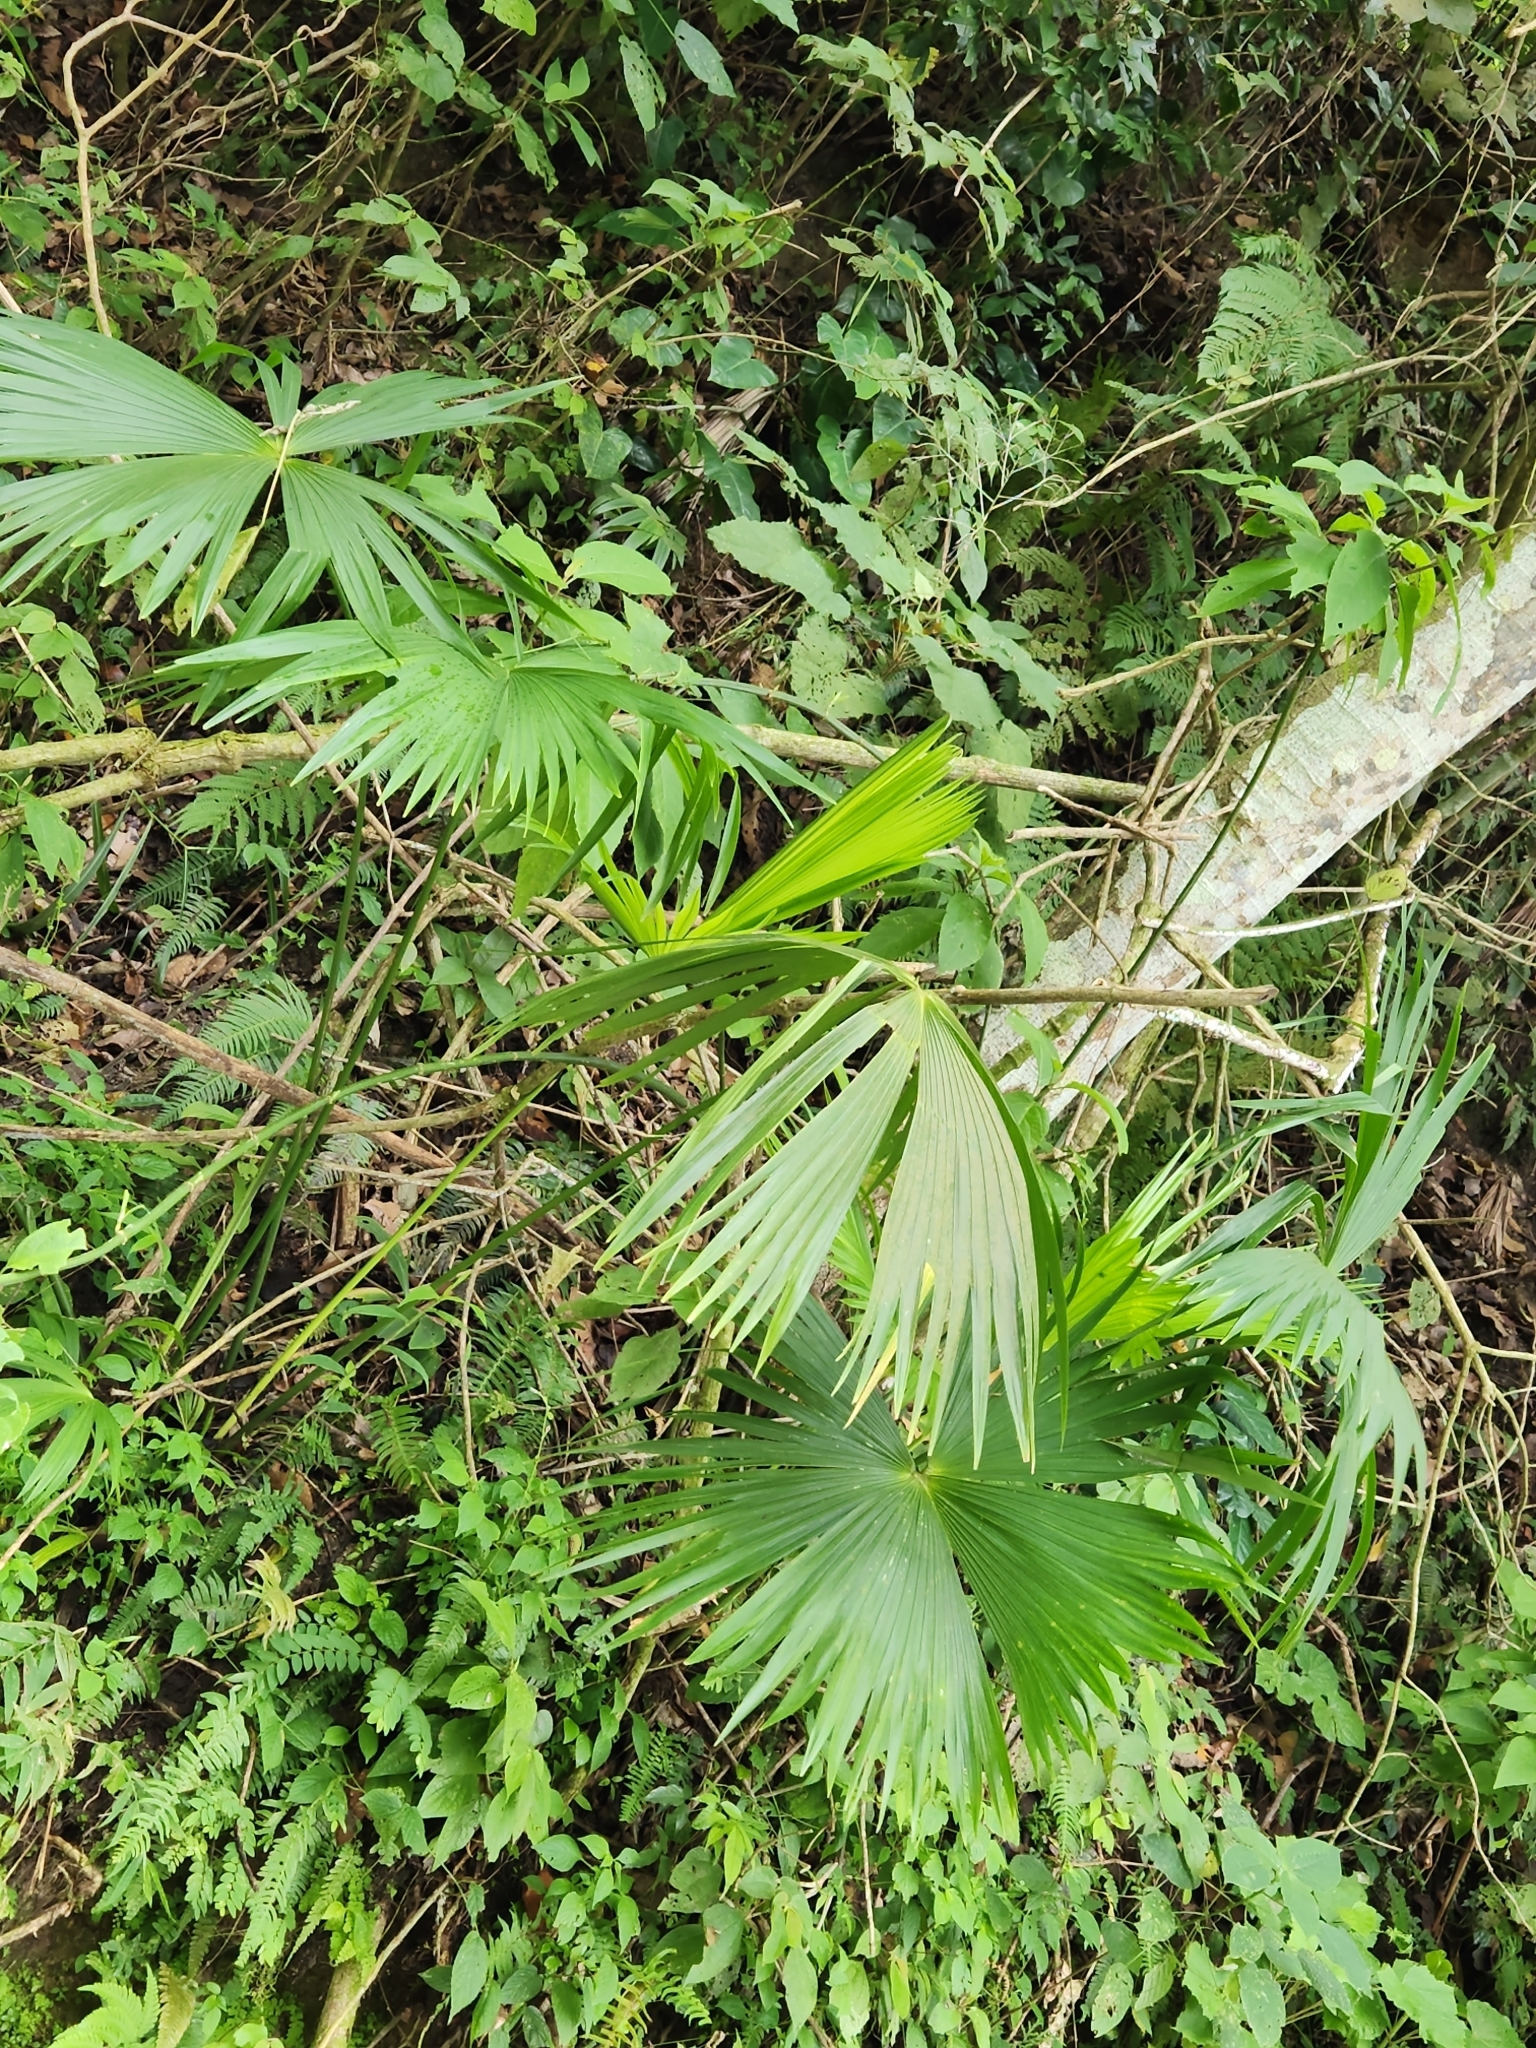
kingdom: Plantae
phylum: Tracheophyta
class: Liliopsida
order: Pandanales
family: Cyclanthaceae
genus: Carludovica
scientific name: Carludovica palmata
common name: Panama hat plant
